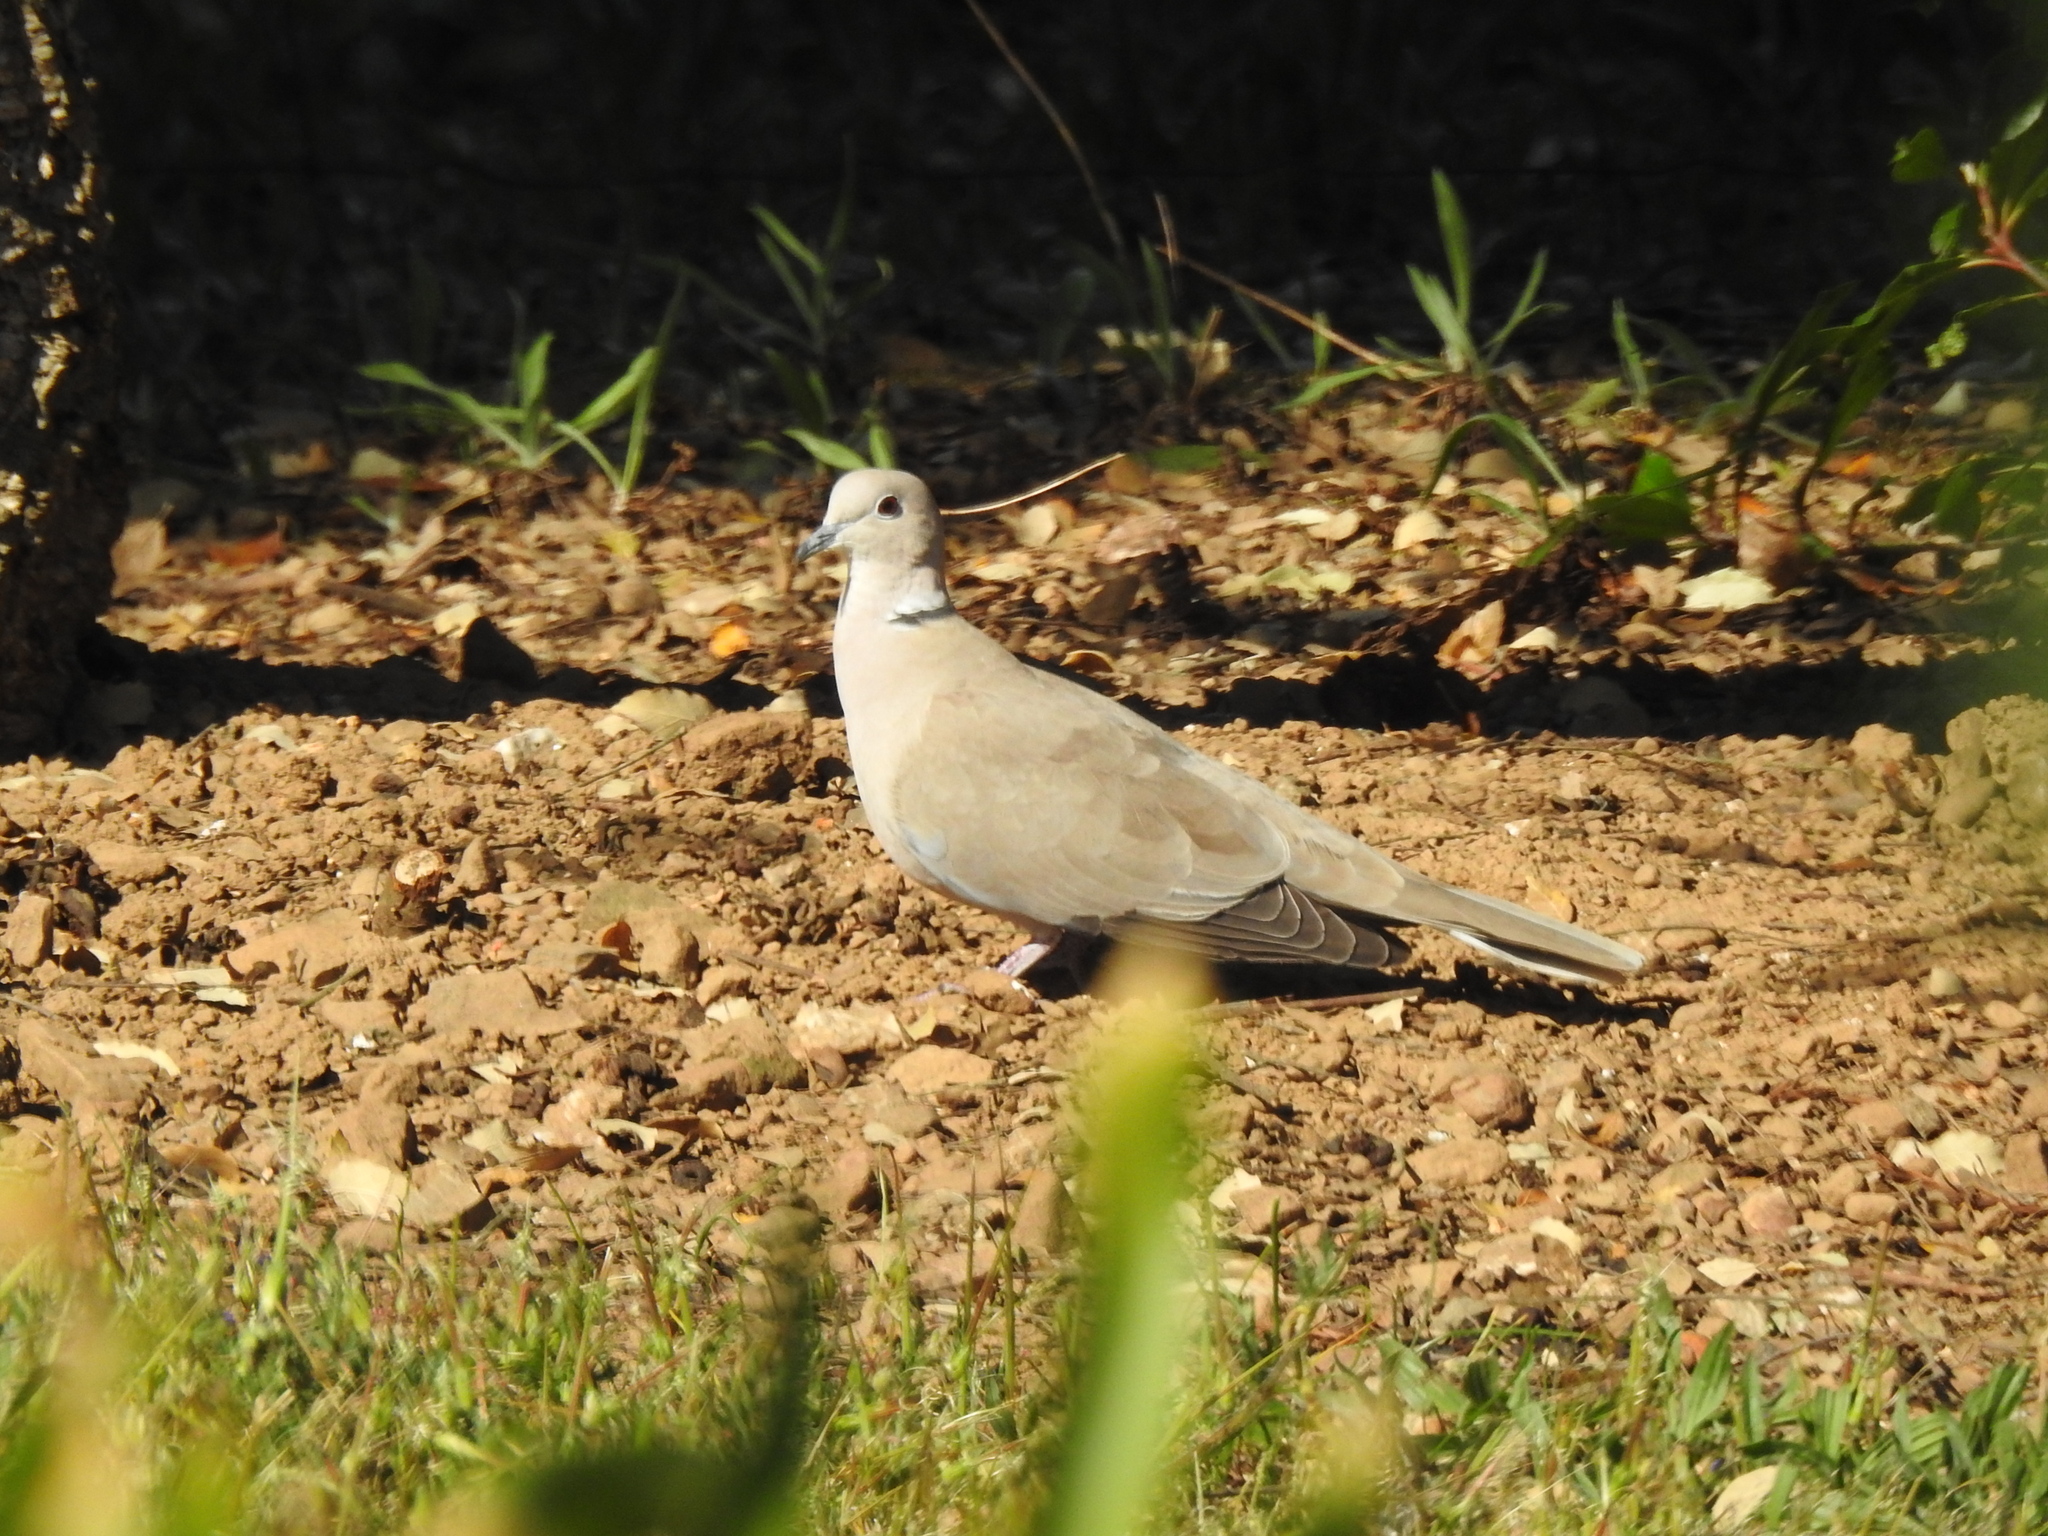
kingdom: Animalia
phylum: Chordata
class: Aves
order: Columbiformes
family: Columbidae
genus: Streptopelia
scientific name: Streptopelia decaocto
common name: Eurasian collared dove
